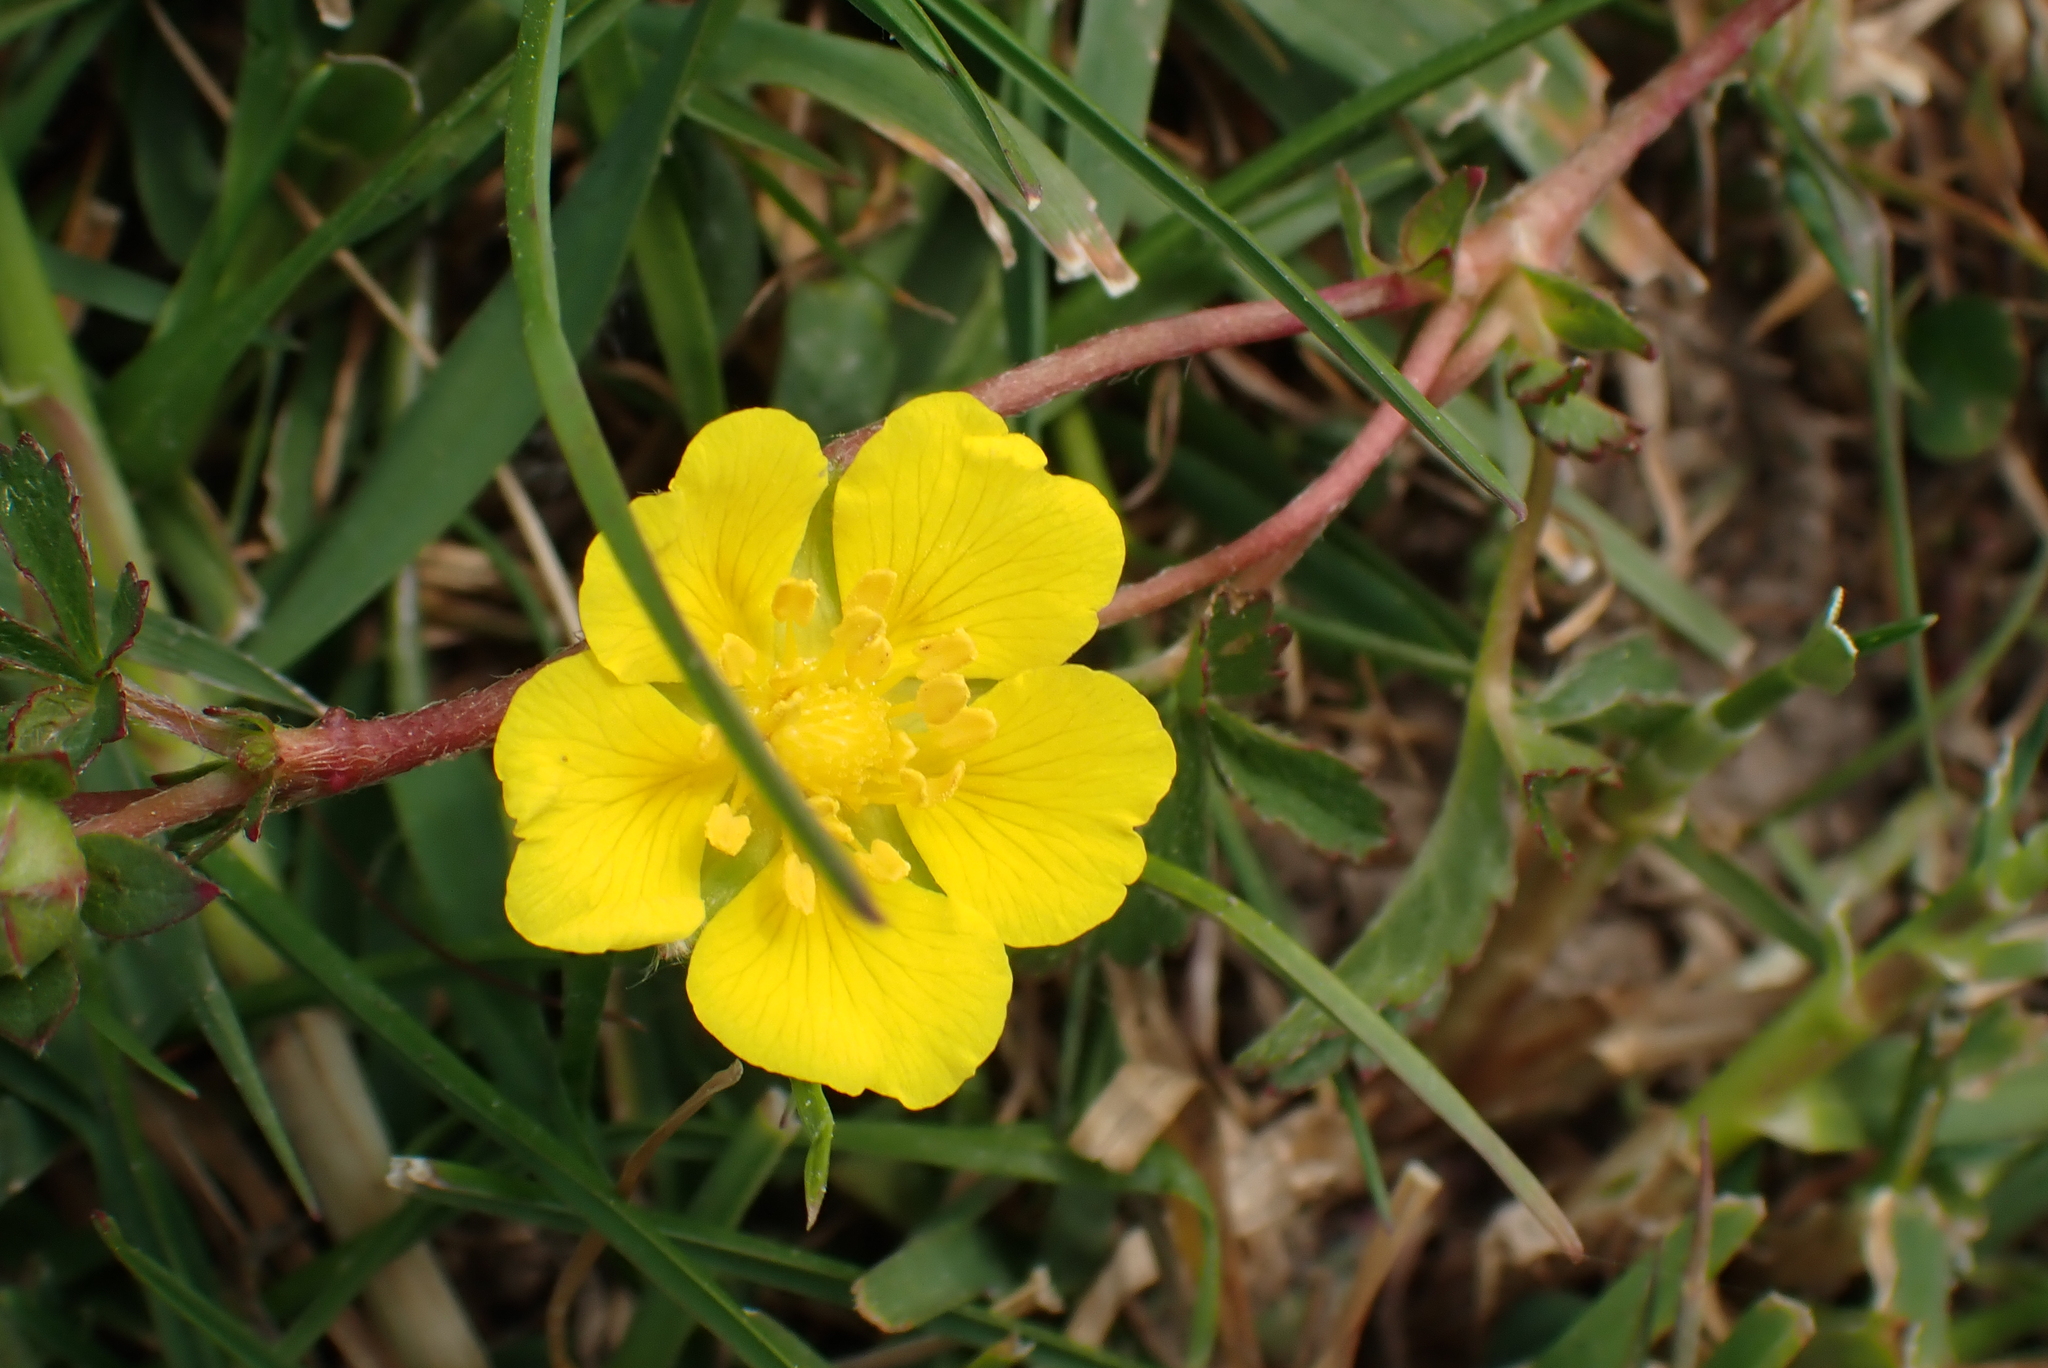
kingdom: Plantae
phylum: Tracheophyta
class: Magnoliopsida
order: Rosales
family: Rosaceae
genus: Potentilla
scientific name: Potentilla reptans
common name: Creeping cinquefoil
